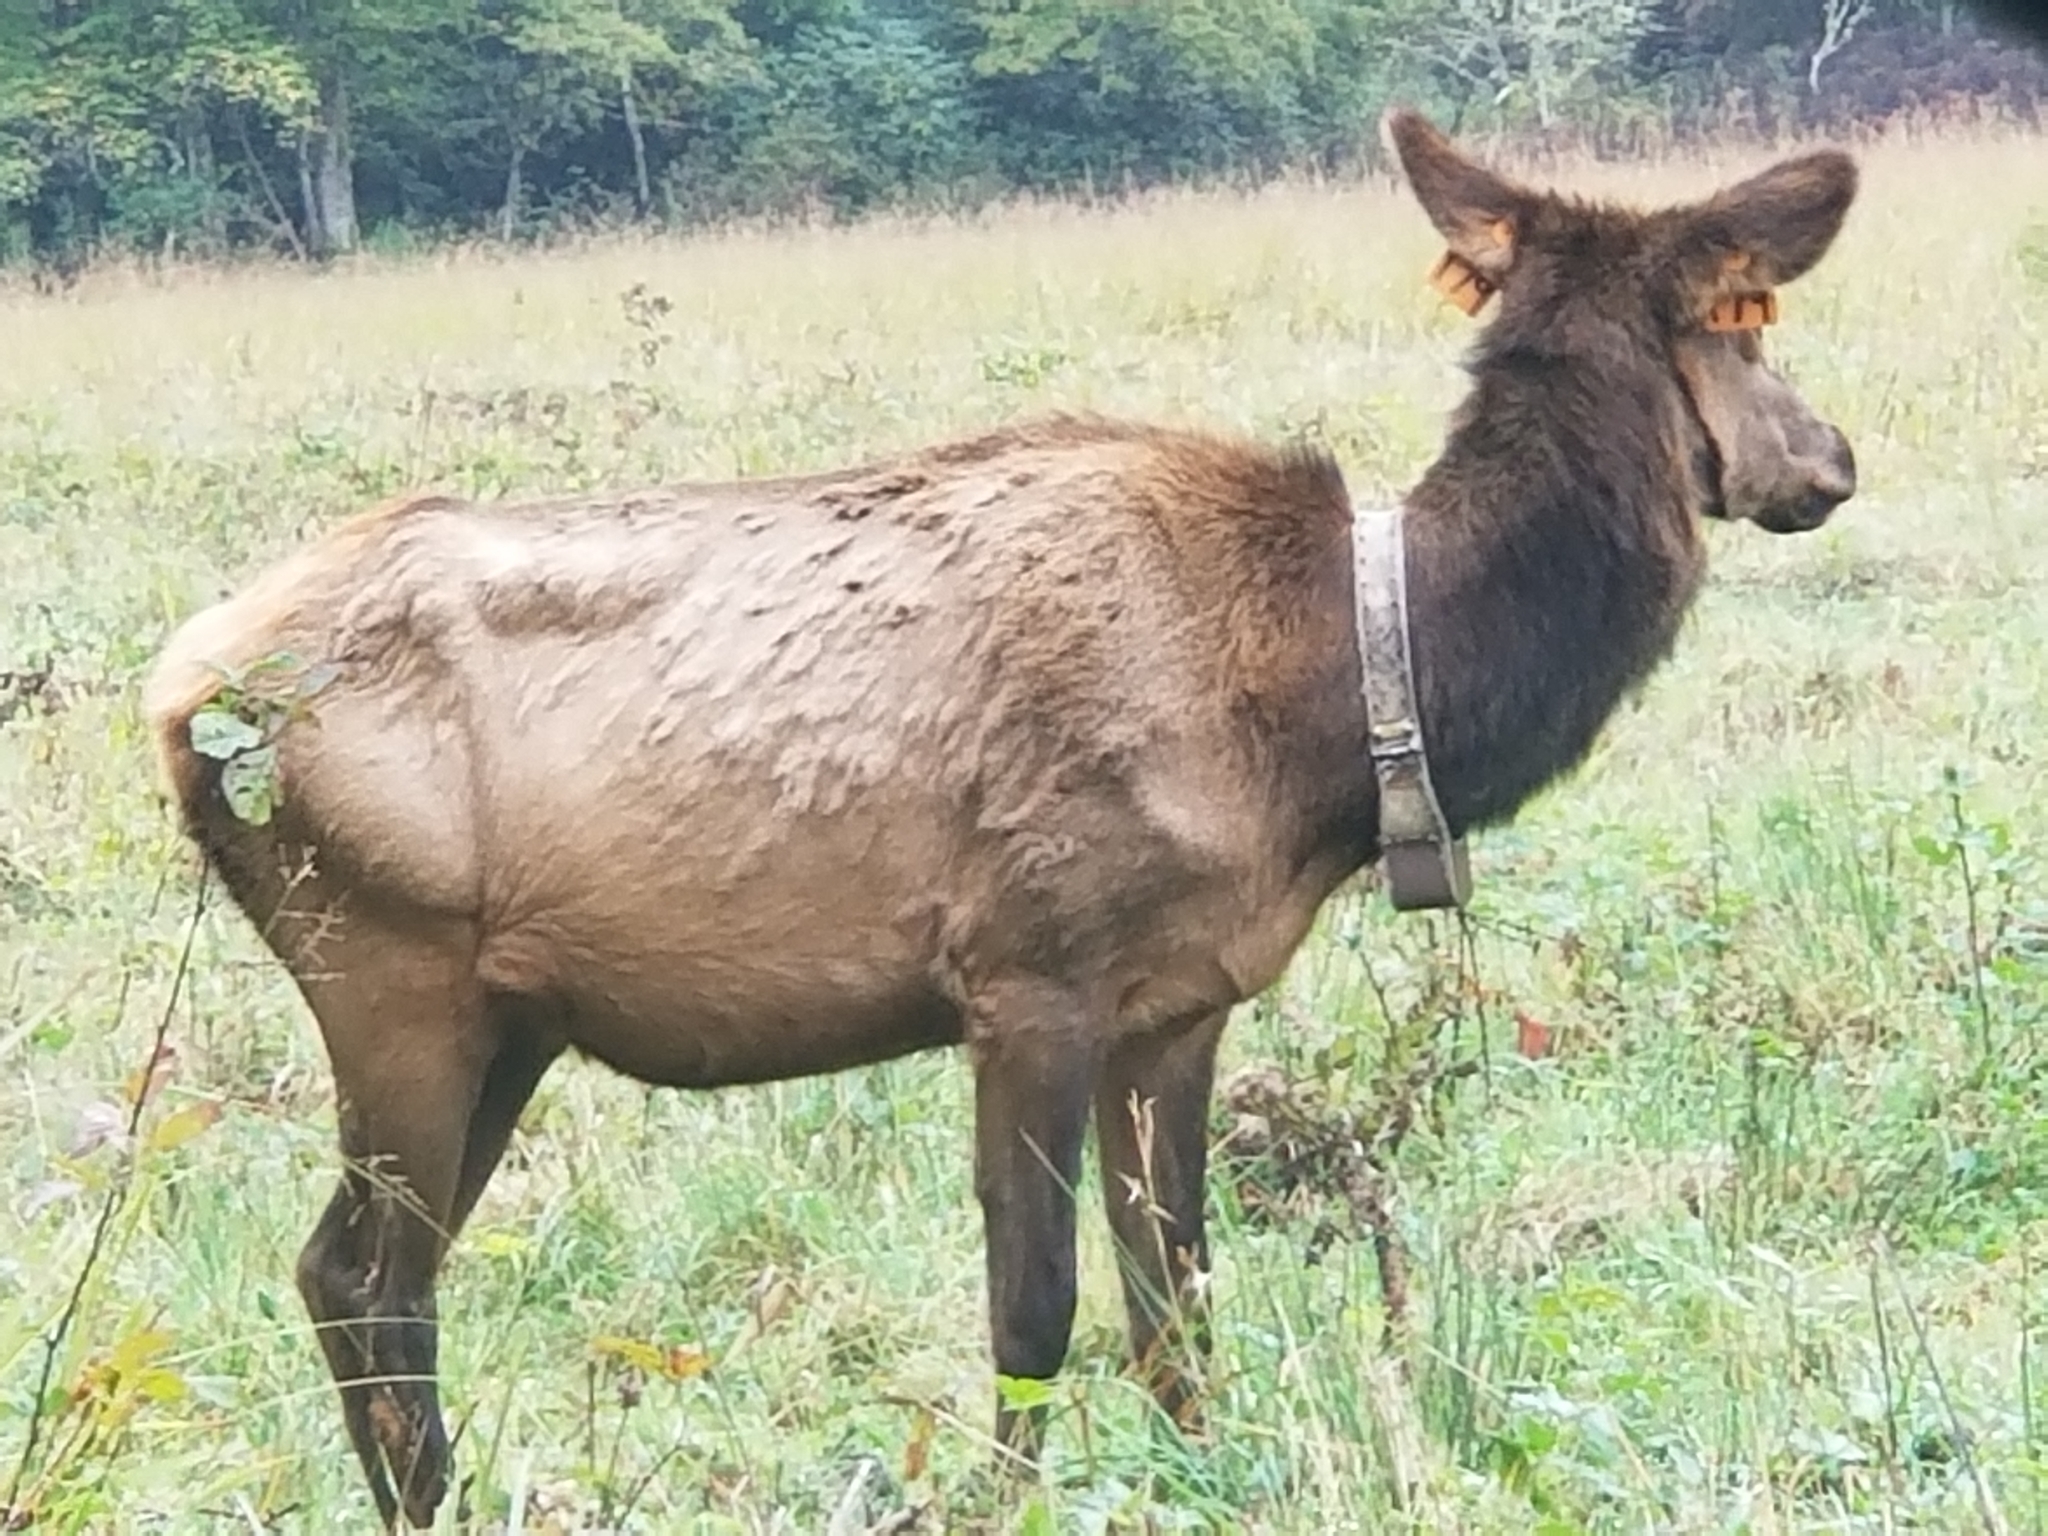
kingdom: Animalia
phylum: Chordata
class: Mammalia
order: Artiodactyla
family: Cervidae
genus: Cervus
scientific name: Cervus elaphus
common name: Red deer
